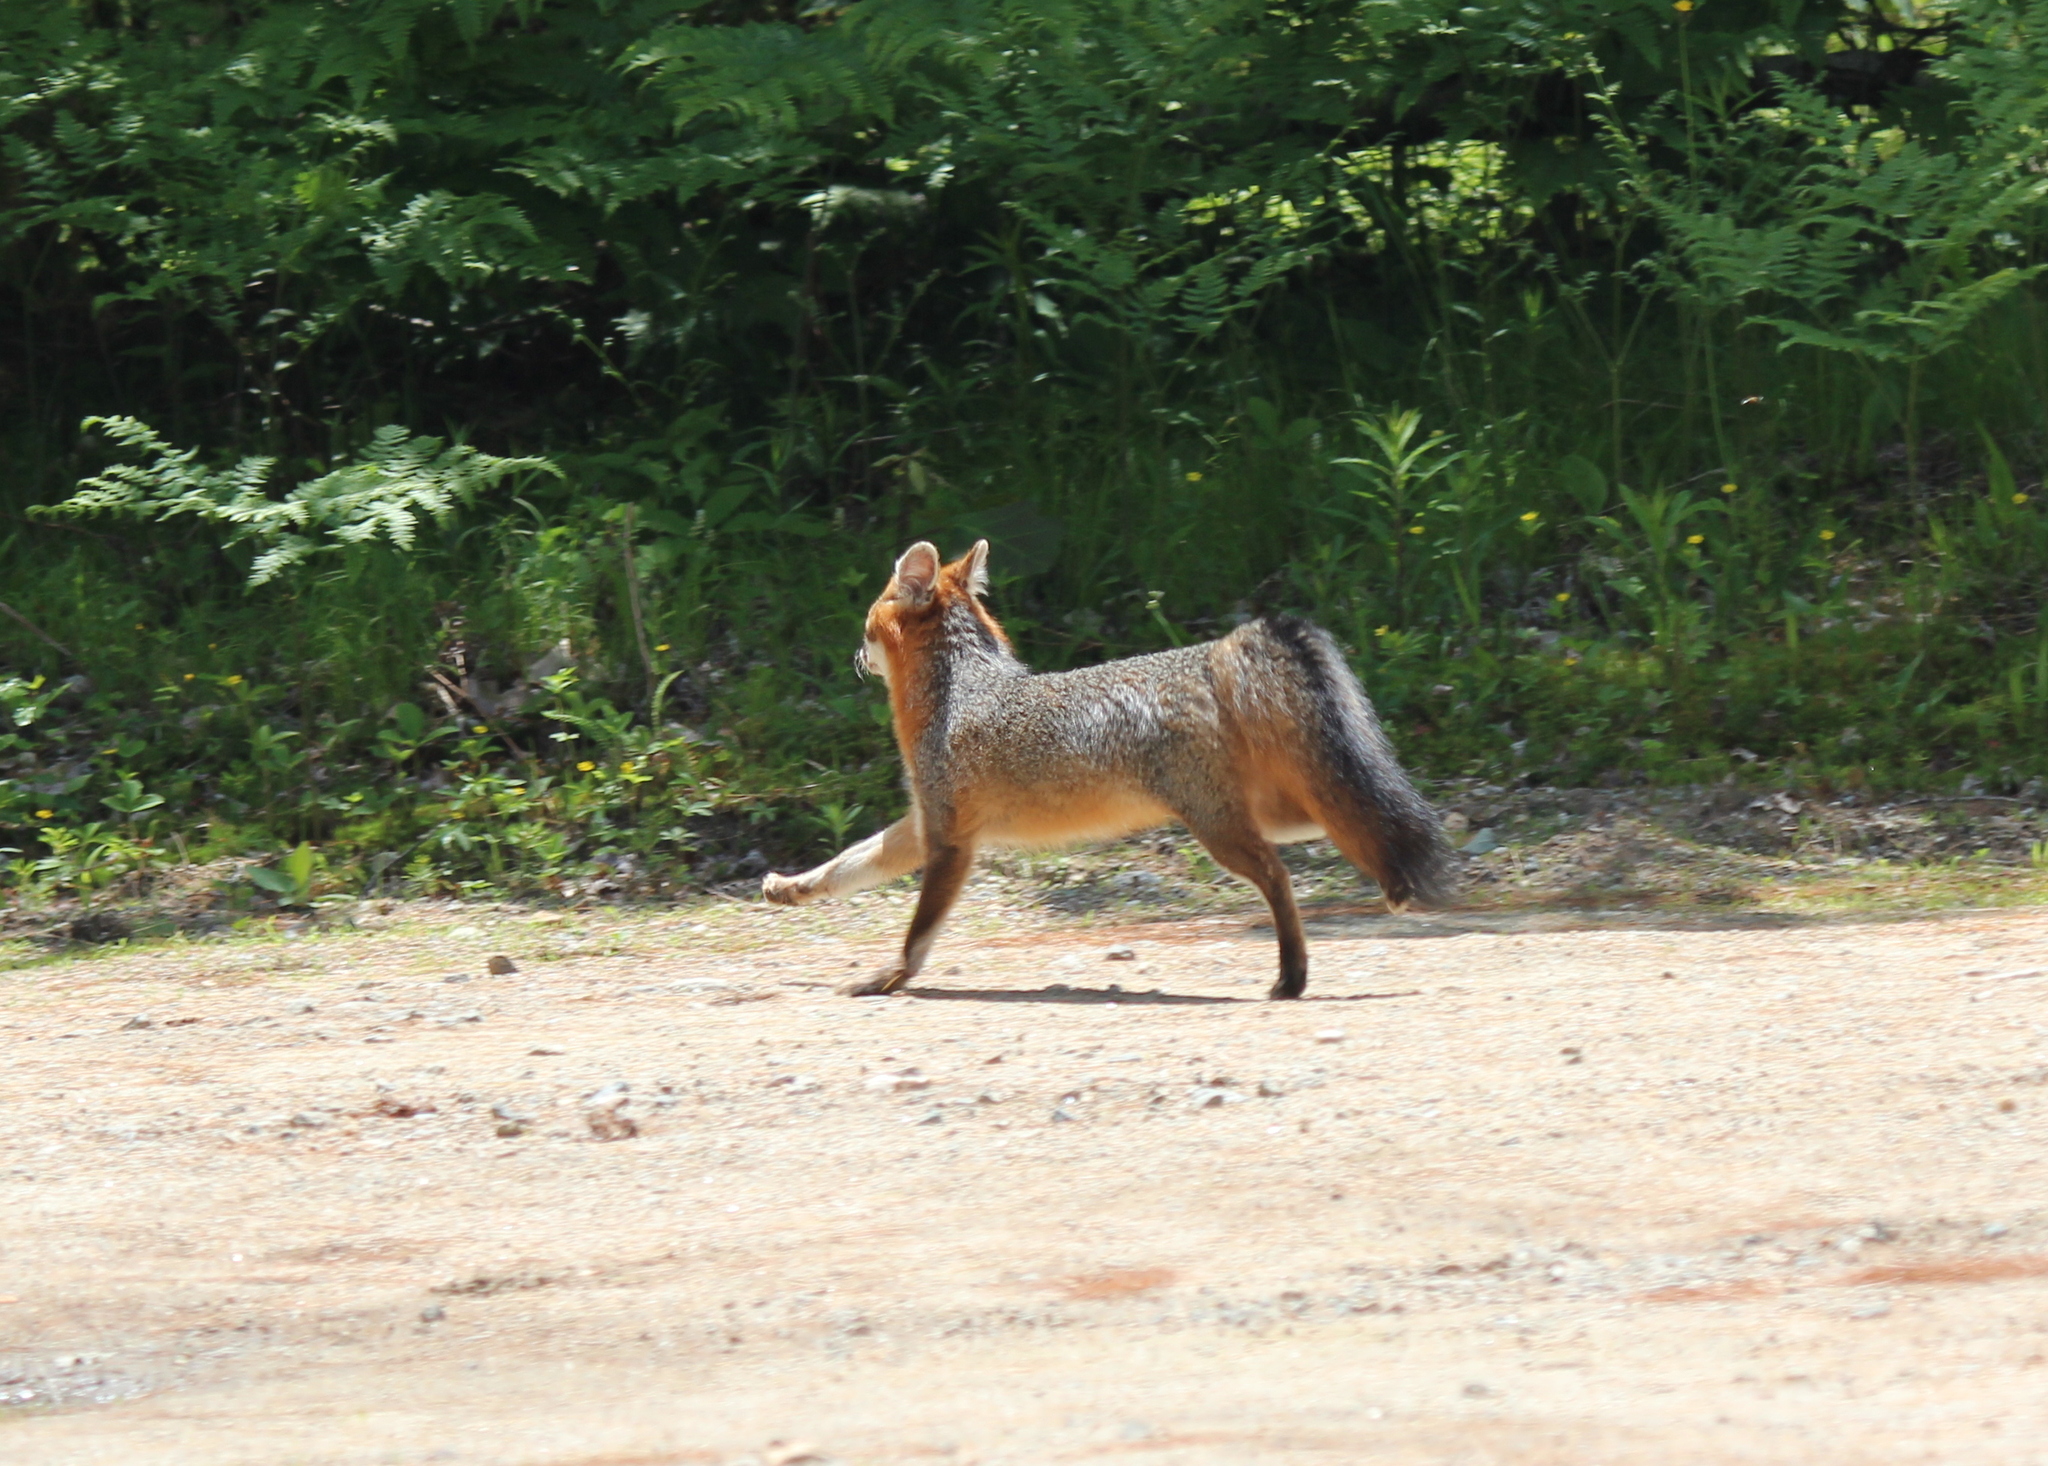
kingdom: Animalia
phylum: Chordata
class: Mammalia
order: Carnivora
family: Canidae
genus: Urocyon
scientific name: Urocyon cinereoargenteus
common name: Gray fox
